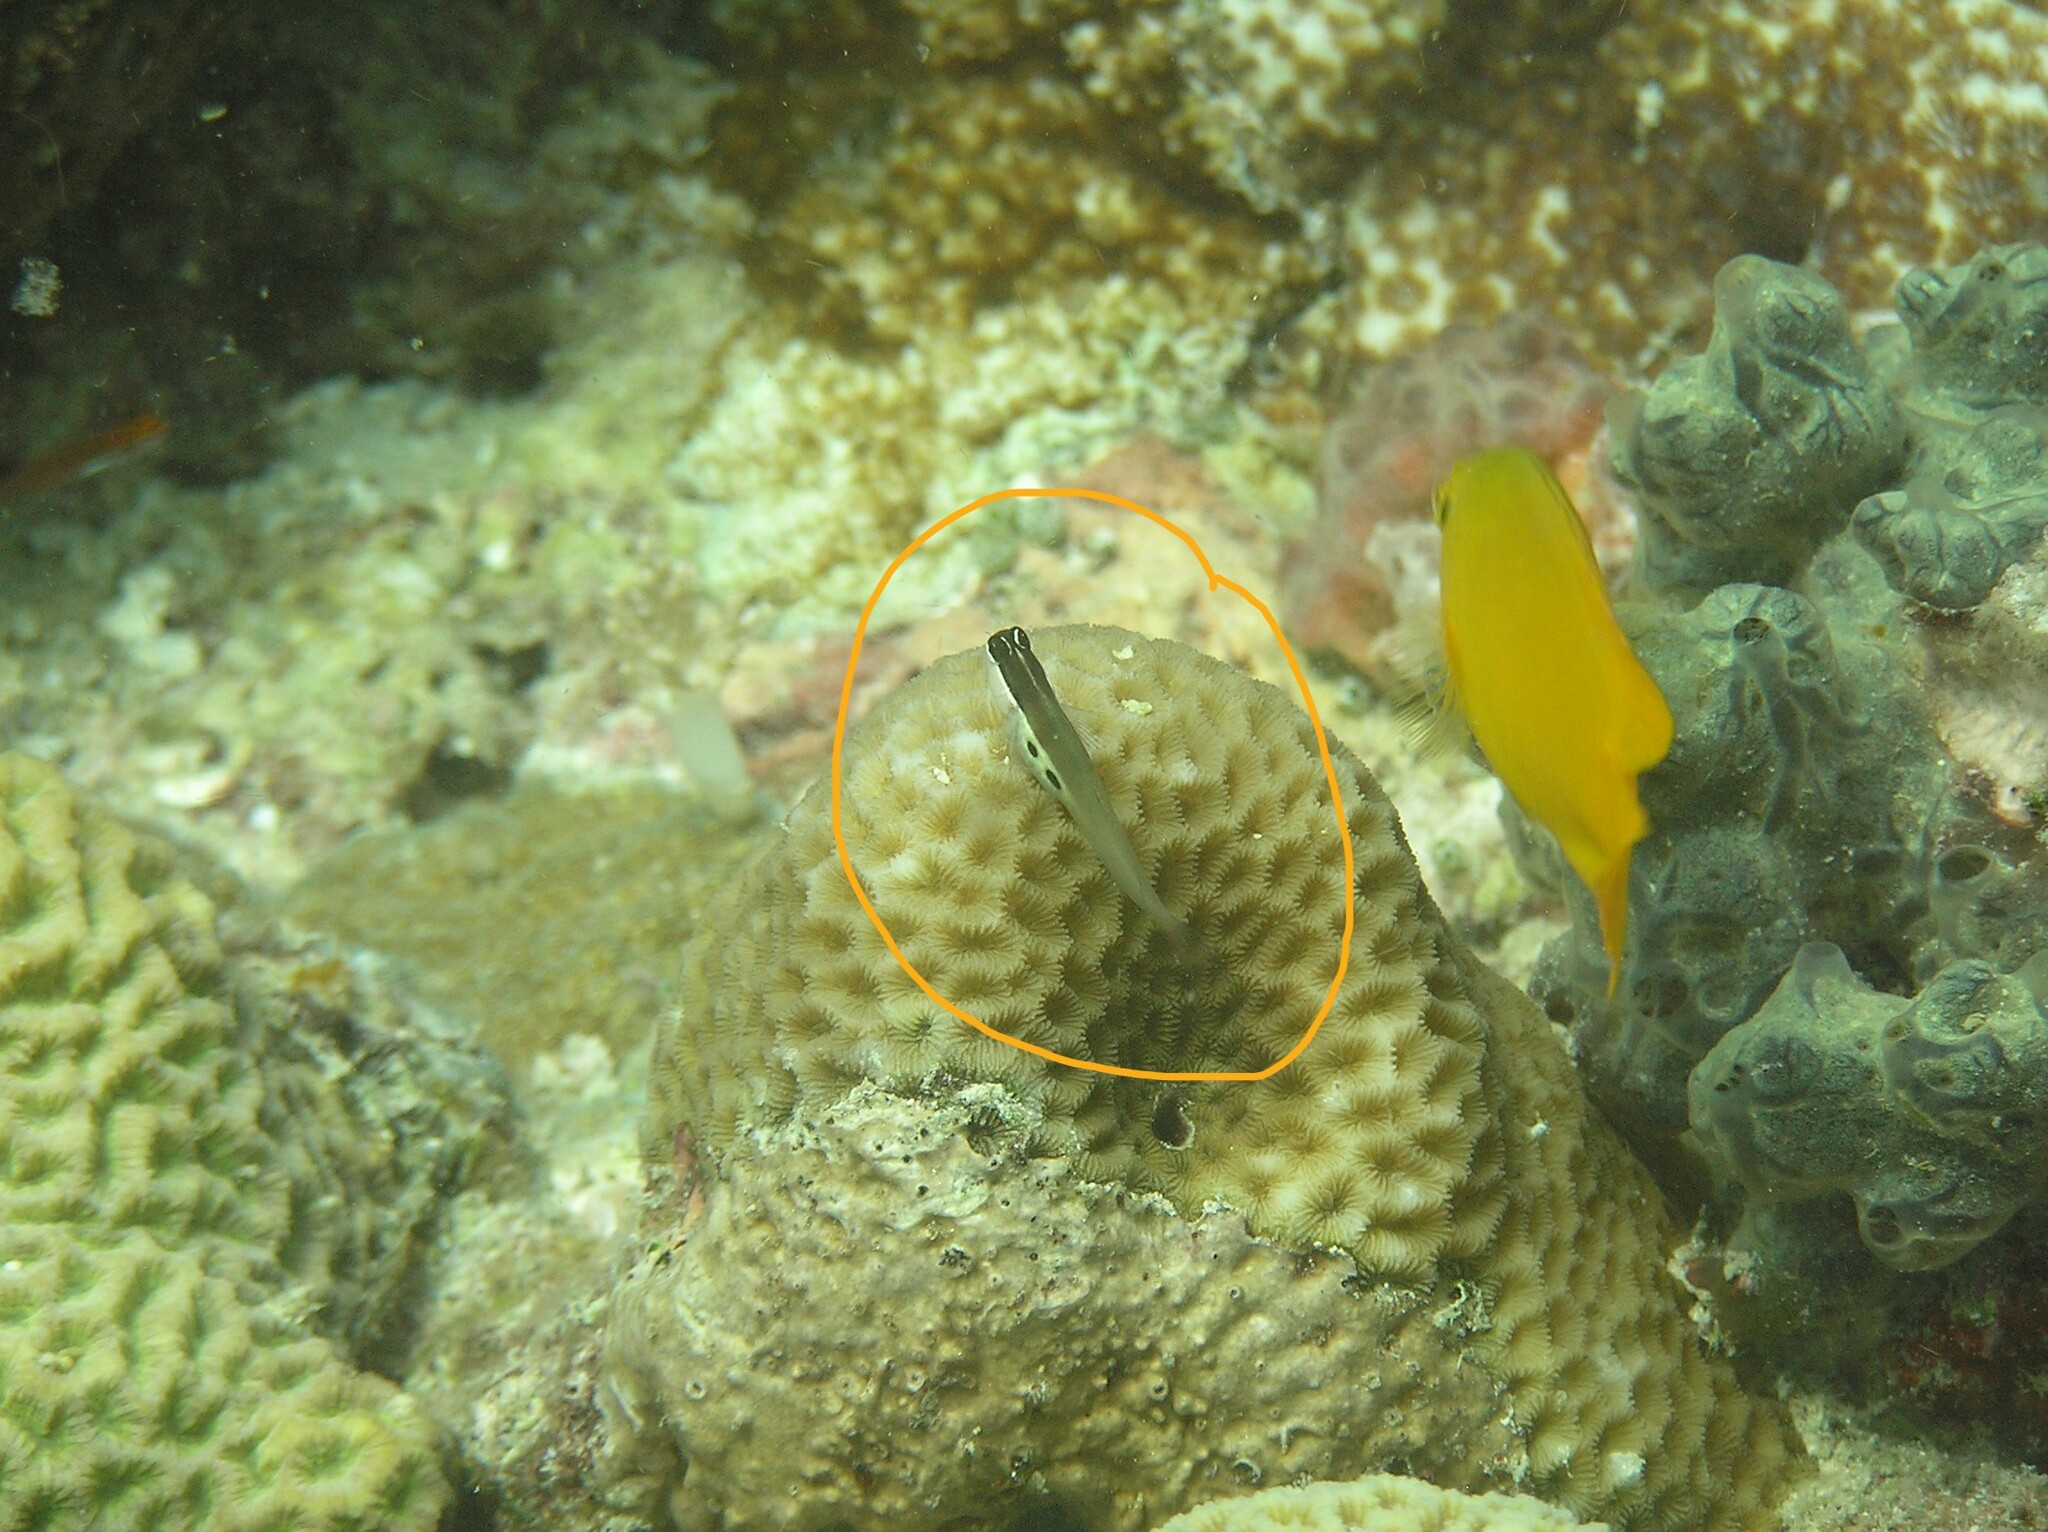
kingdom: Animalia
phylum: Chordata
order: Perciformes
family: Blenniidae
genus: Ecsenius
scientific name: Ecsenius bimaculatus
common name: Twin-spot combtooth-blenny
